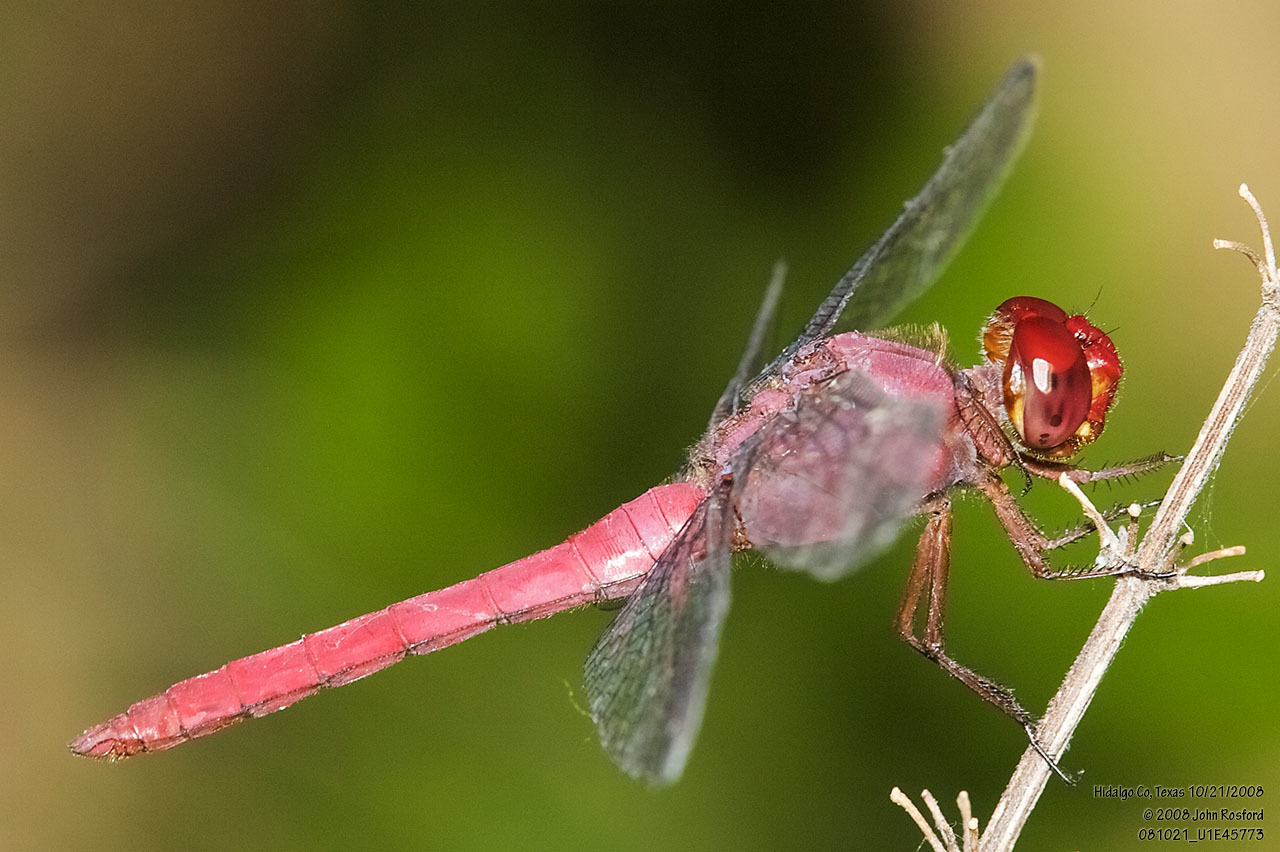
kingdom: Animalia
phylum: Arthropoda
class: Insecta
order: Odonata
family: Libellulidae
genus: Orthemis
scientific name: Orthemis discolor
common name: Carmine skimmer
